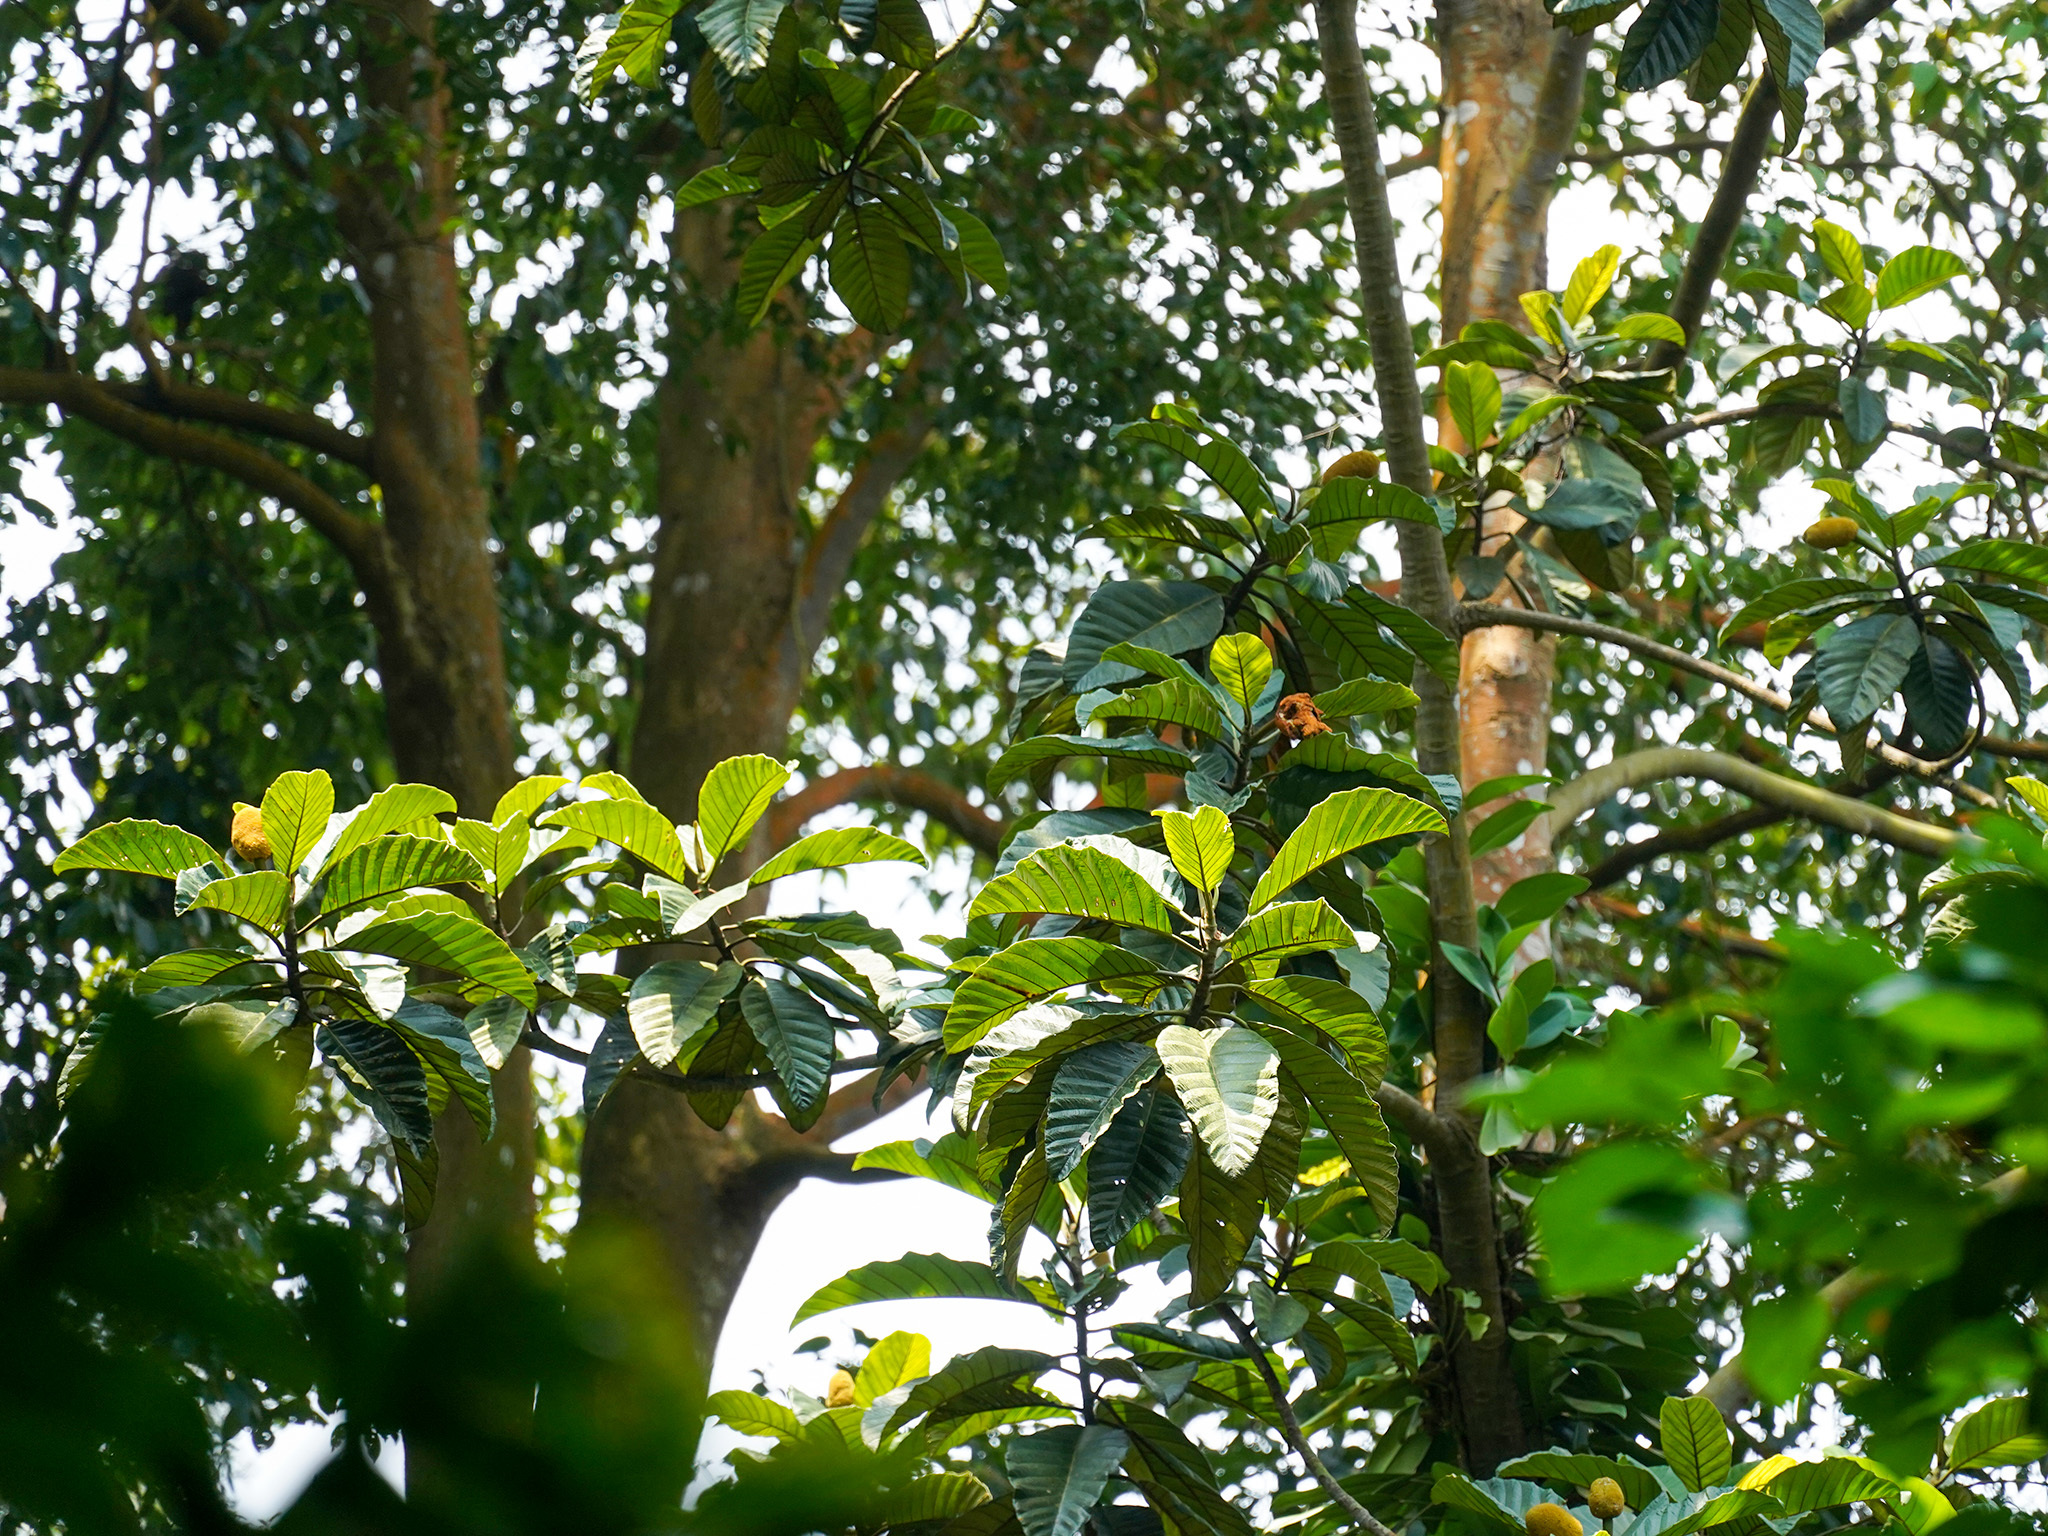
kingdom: Plantae
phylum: Tracheophyta
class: Magnoliopsida
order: Rosales
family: Moraceae
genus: Artocarpus
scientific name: Artocarpus elasticus
